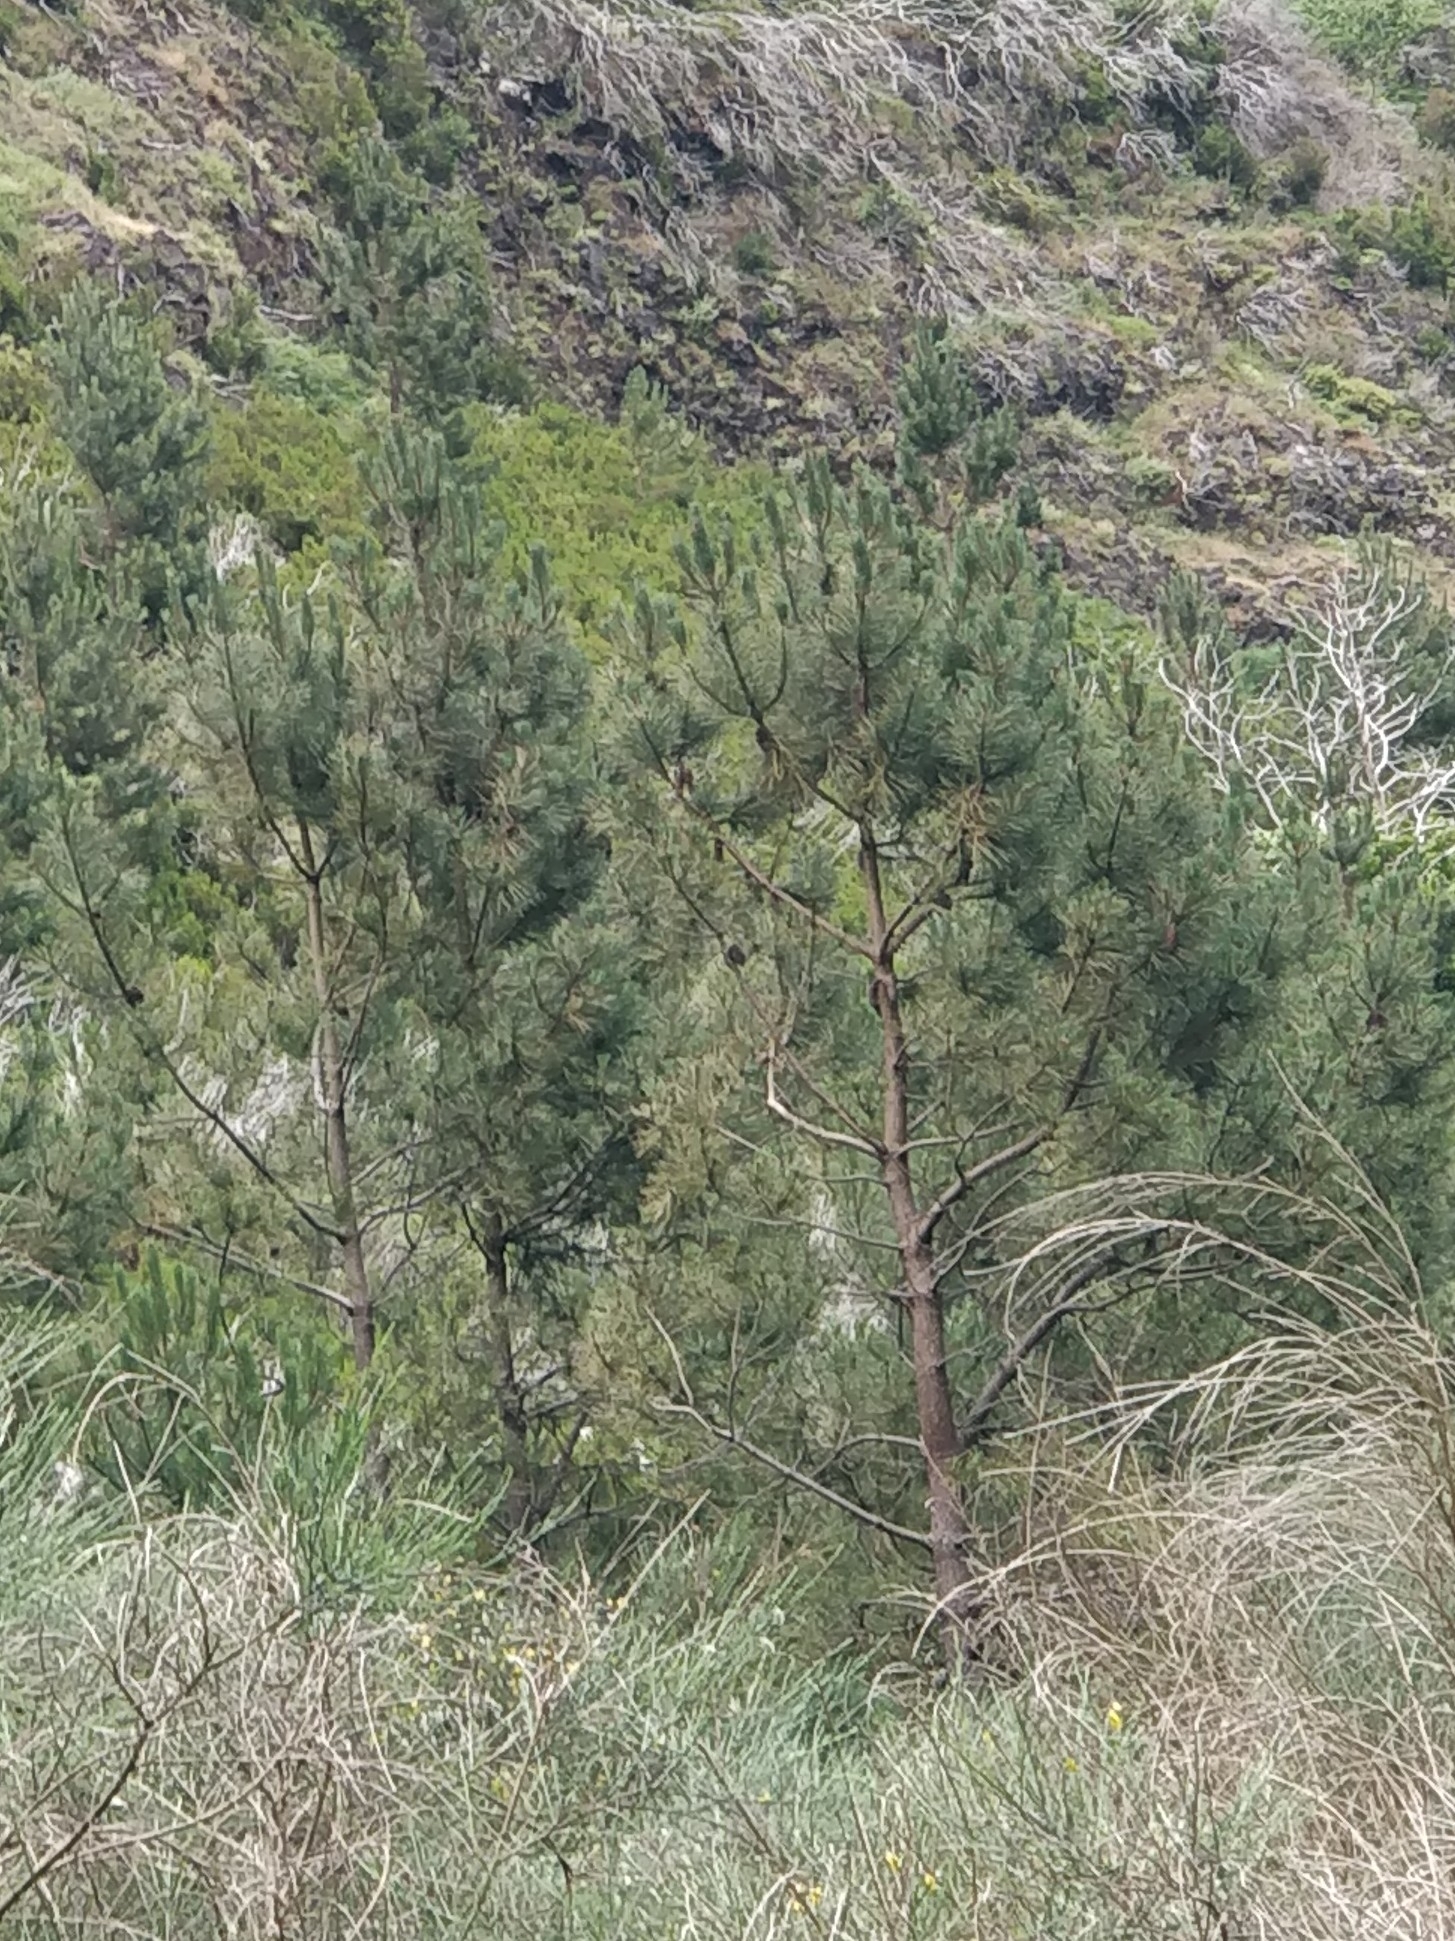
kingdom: Plantae
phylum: Tracheophyta
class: Pinopsida
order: Pinales
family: Pinaceae
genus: Pinus
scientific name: Pinus pinaster
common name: Maritime pine
